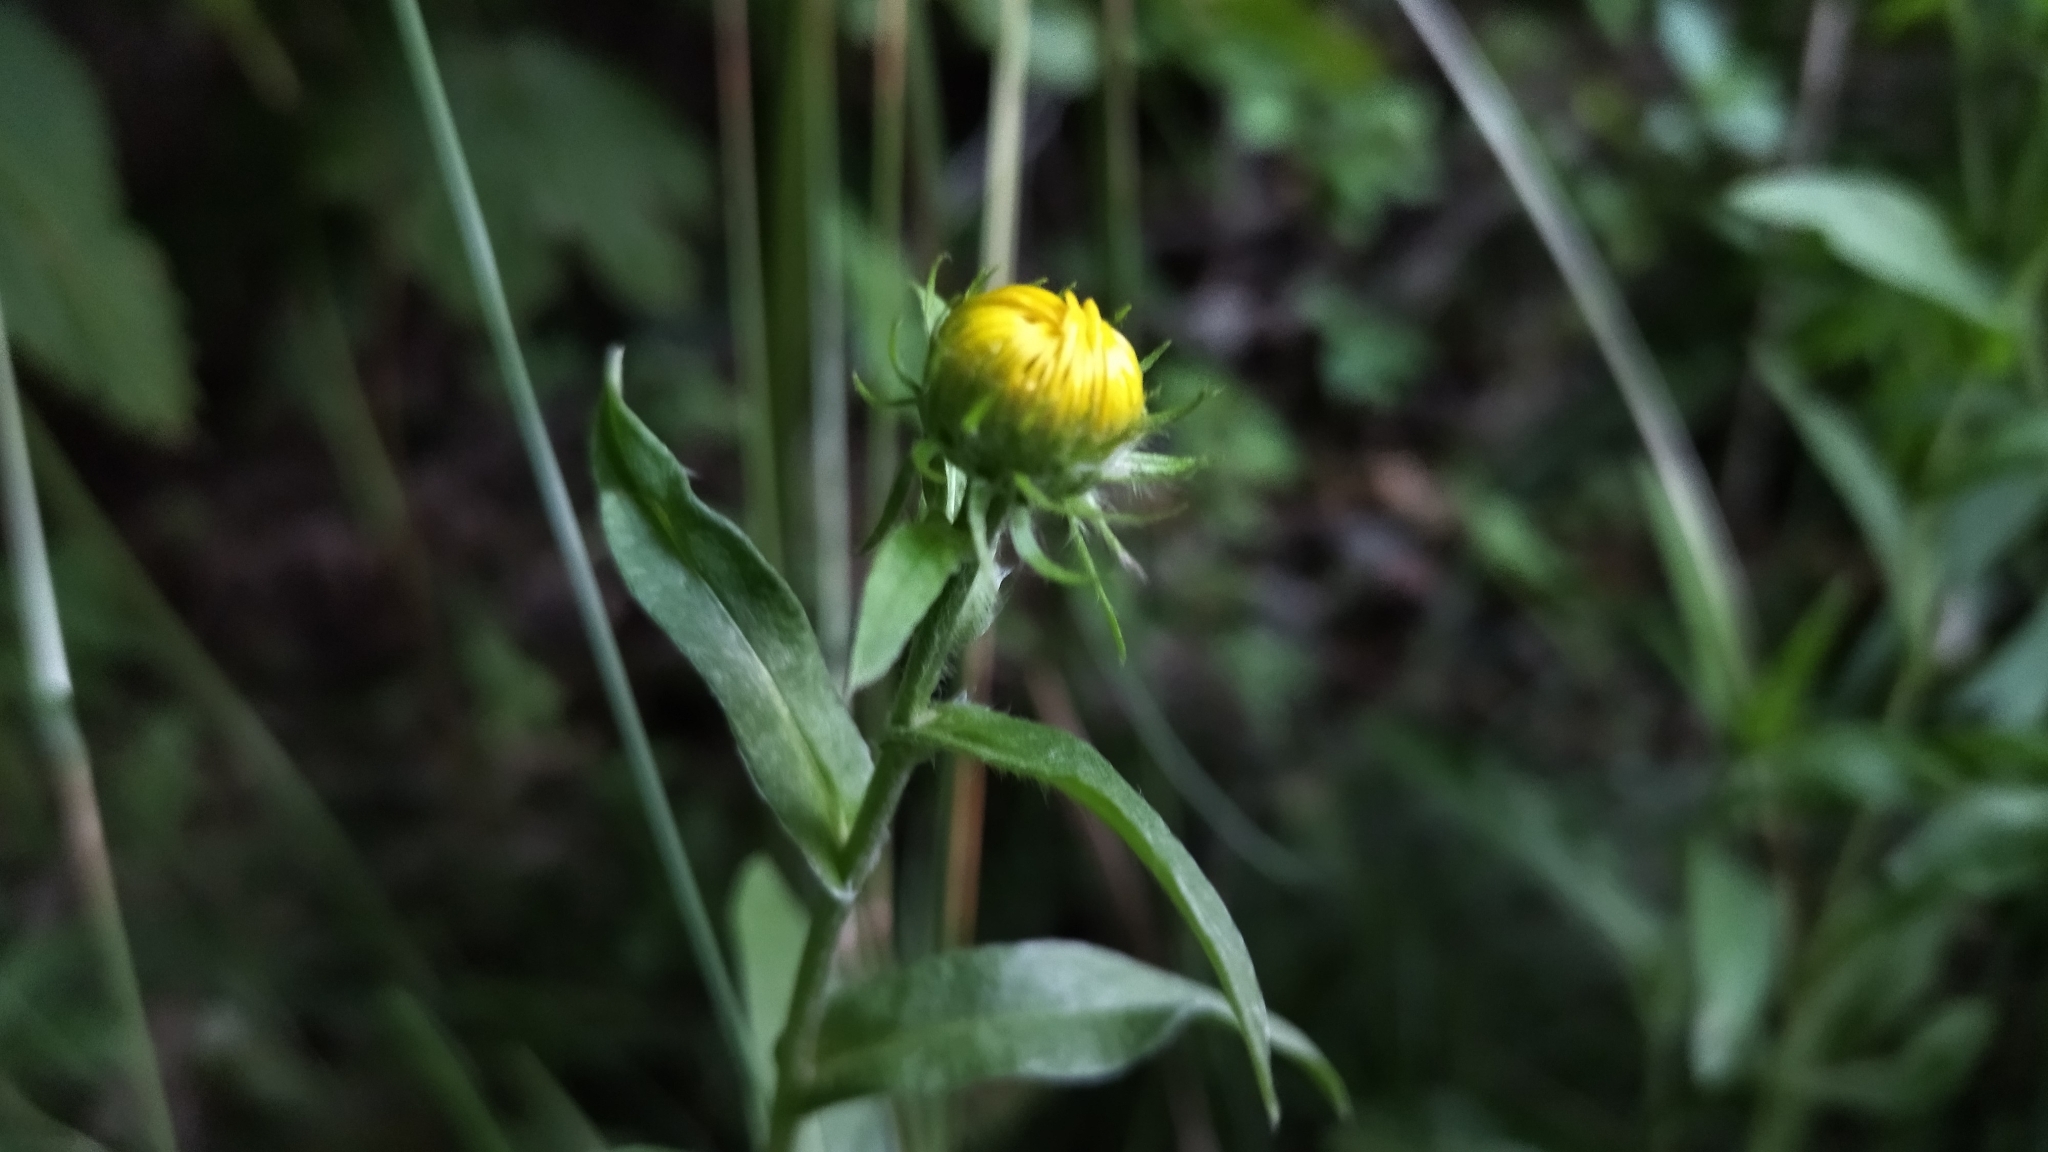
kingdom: Plantae
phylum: Tracheophyta
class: Magnoliopsida
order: Asterales
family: Asteraceae
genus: Pentanema
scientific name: Pentanema britannicum
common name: British elecampane
